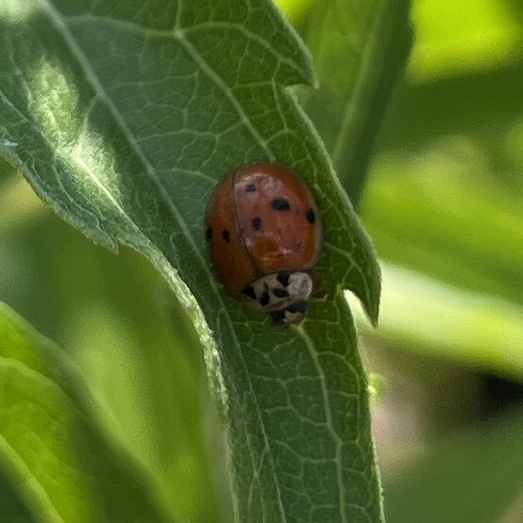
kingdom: Animalia
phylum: Arthropoda
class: Insecta
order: Coleoptera
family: Coccinellidae
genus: Harmonia
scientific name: Harmonia axyridis
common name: Harlequin ladybird
